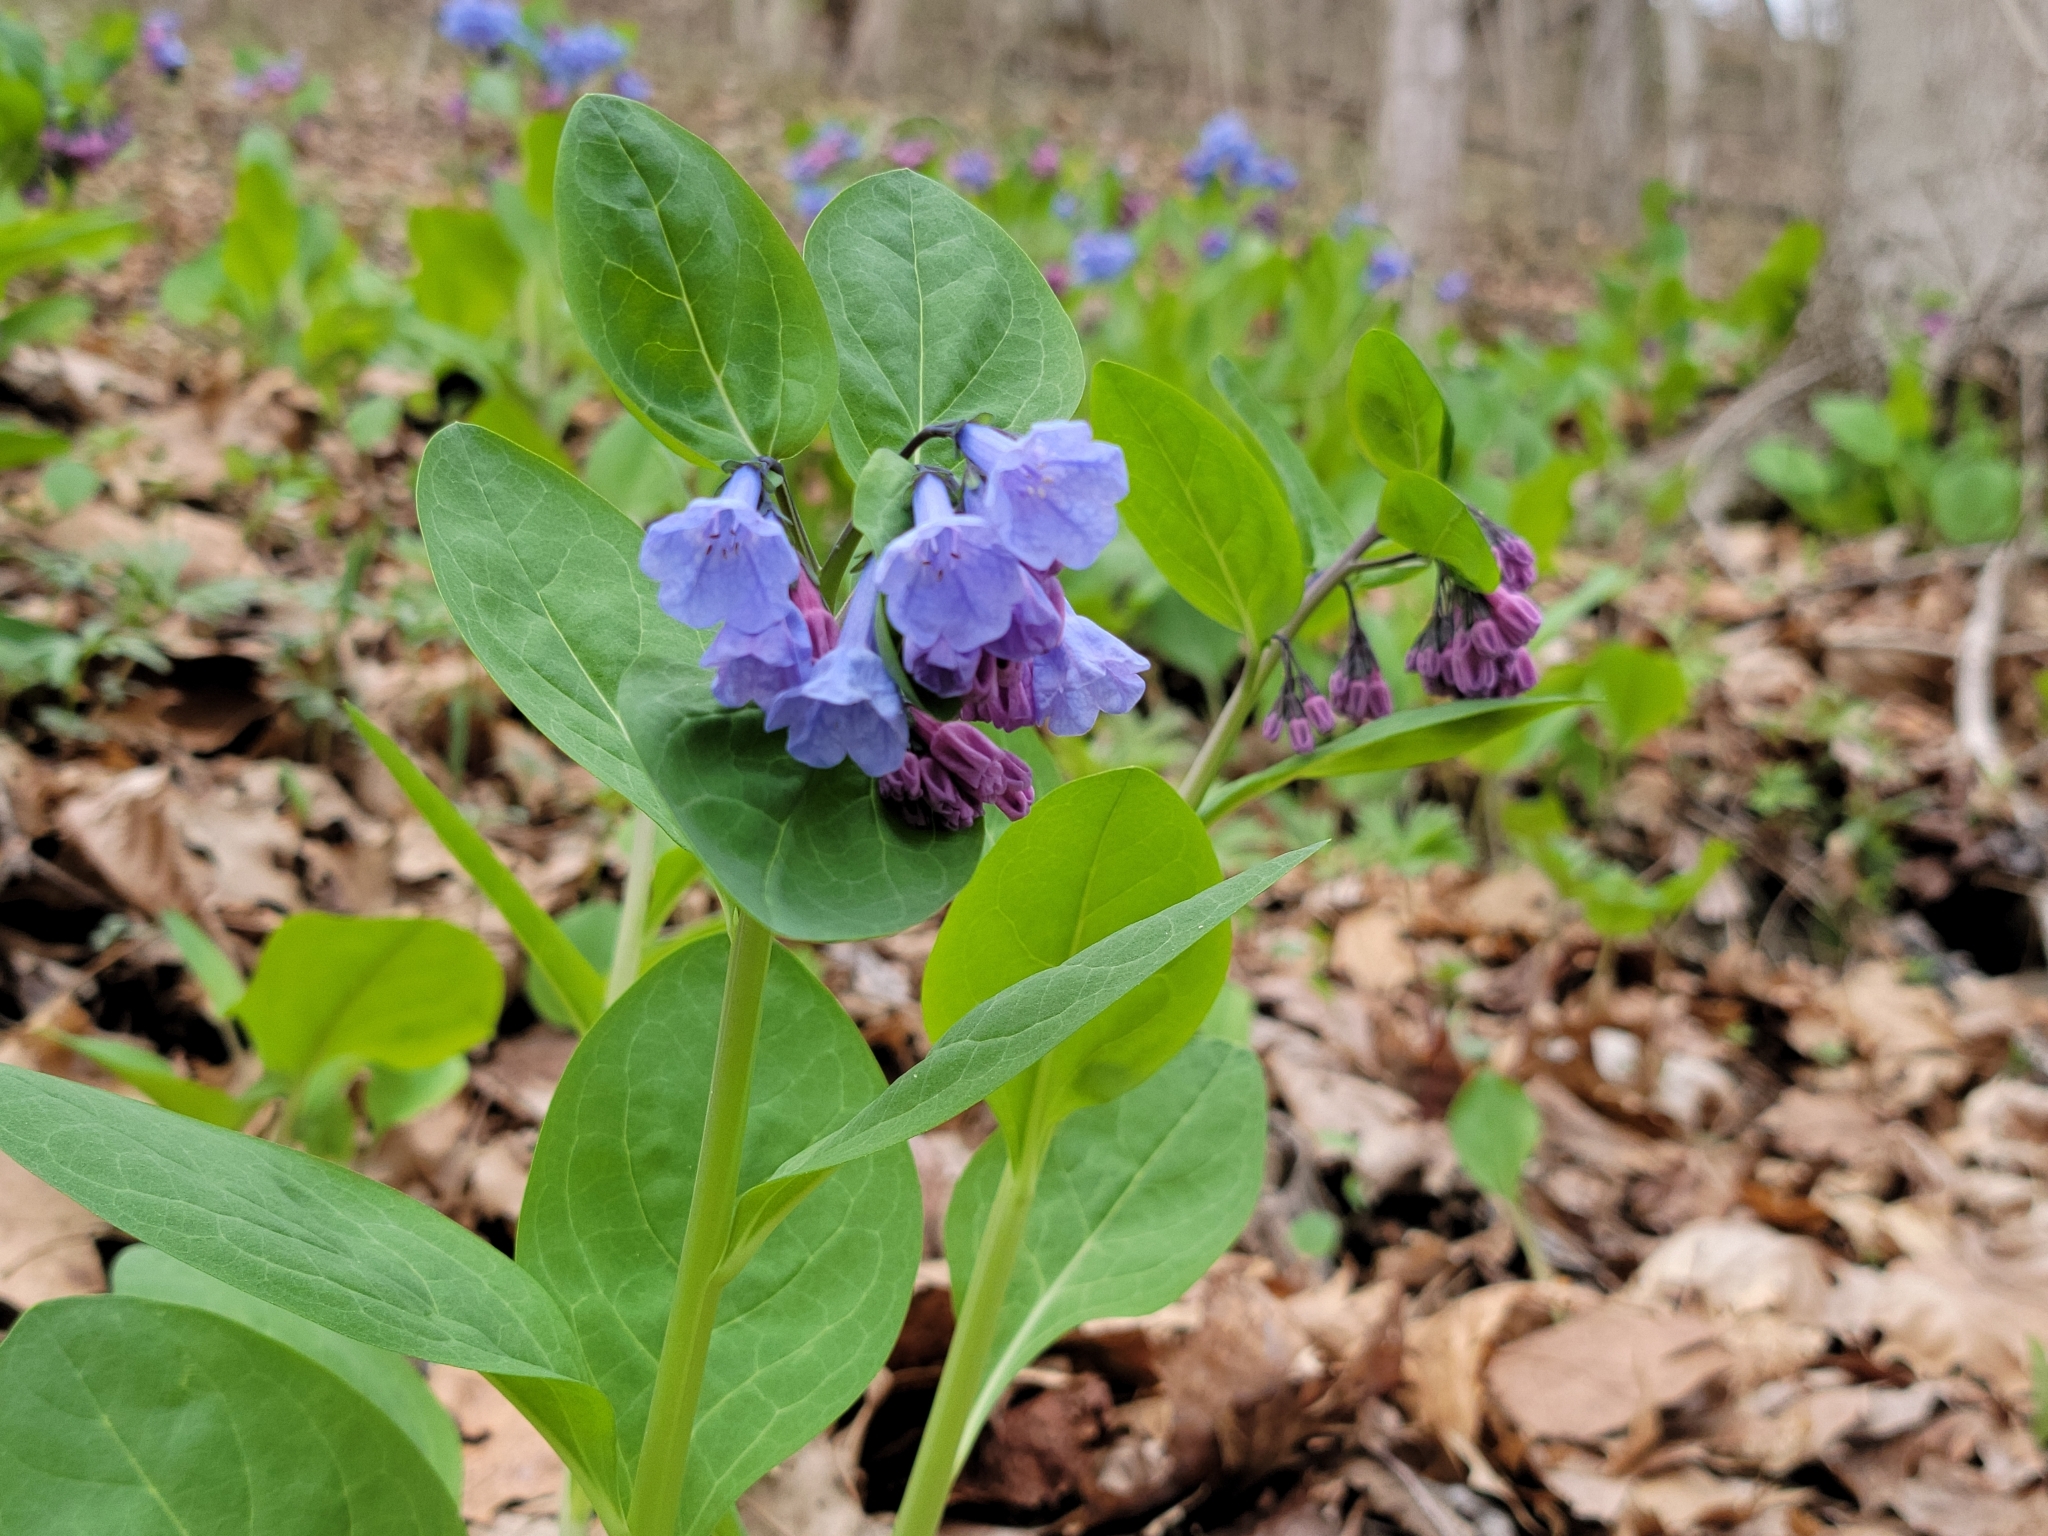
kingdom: Plantae
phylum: Tracheophyta
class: Magnoliopsida
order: Boraginales
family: Boraginaceae
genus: Mertensia
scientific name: Mertensia virginica
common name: Virginia bluebells
